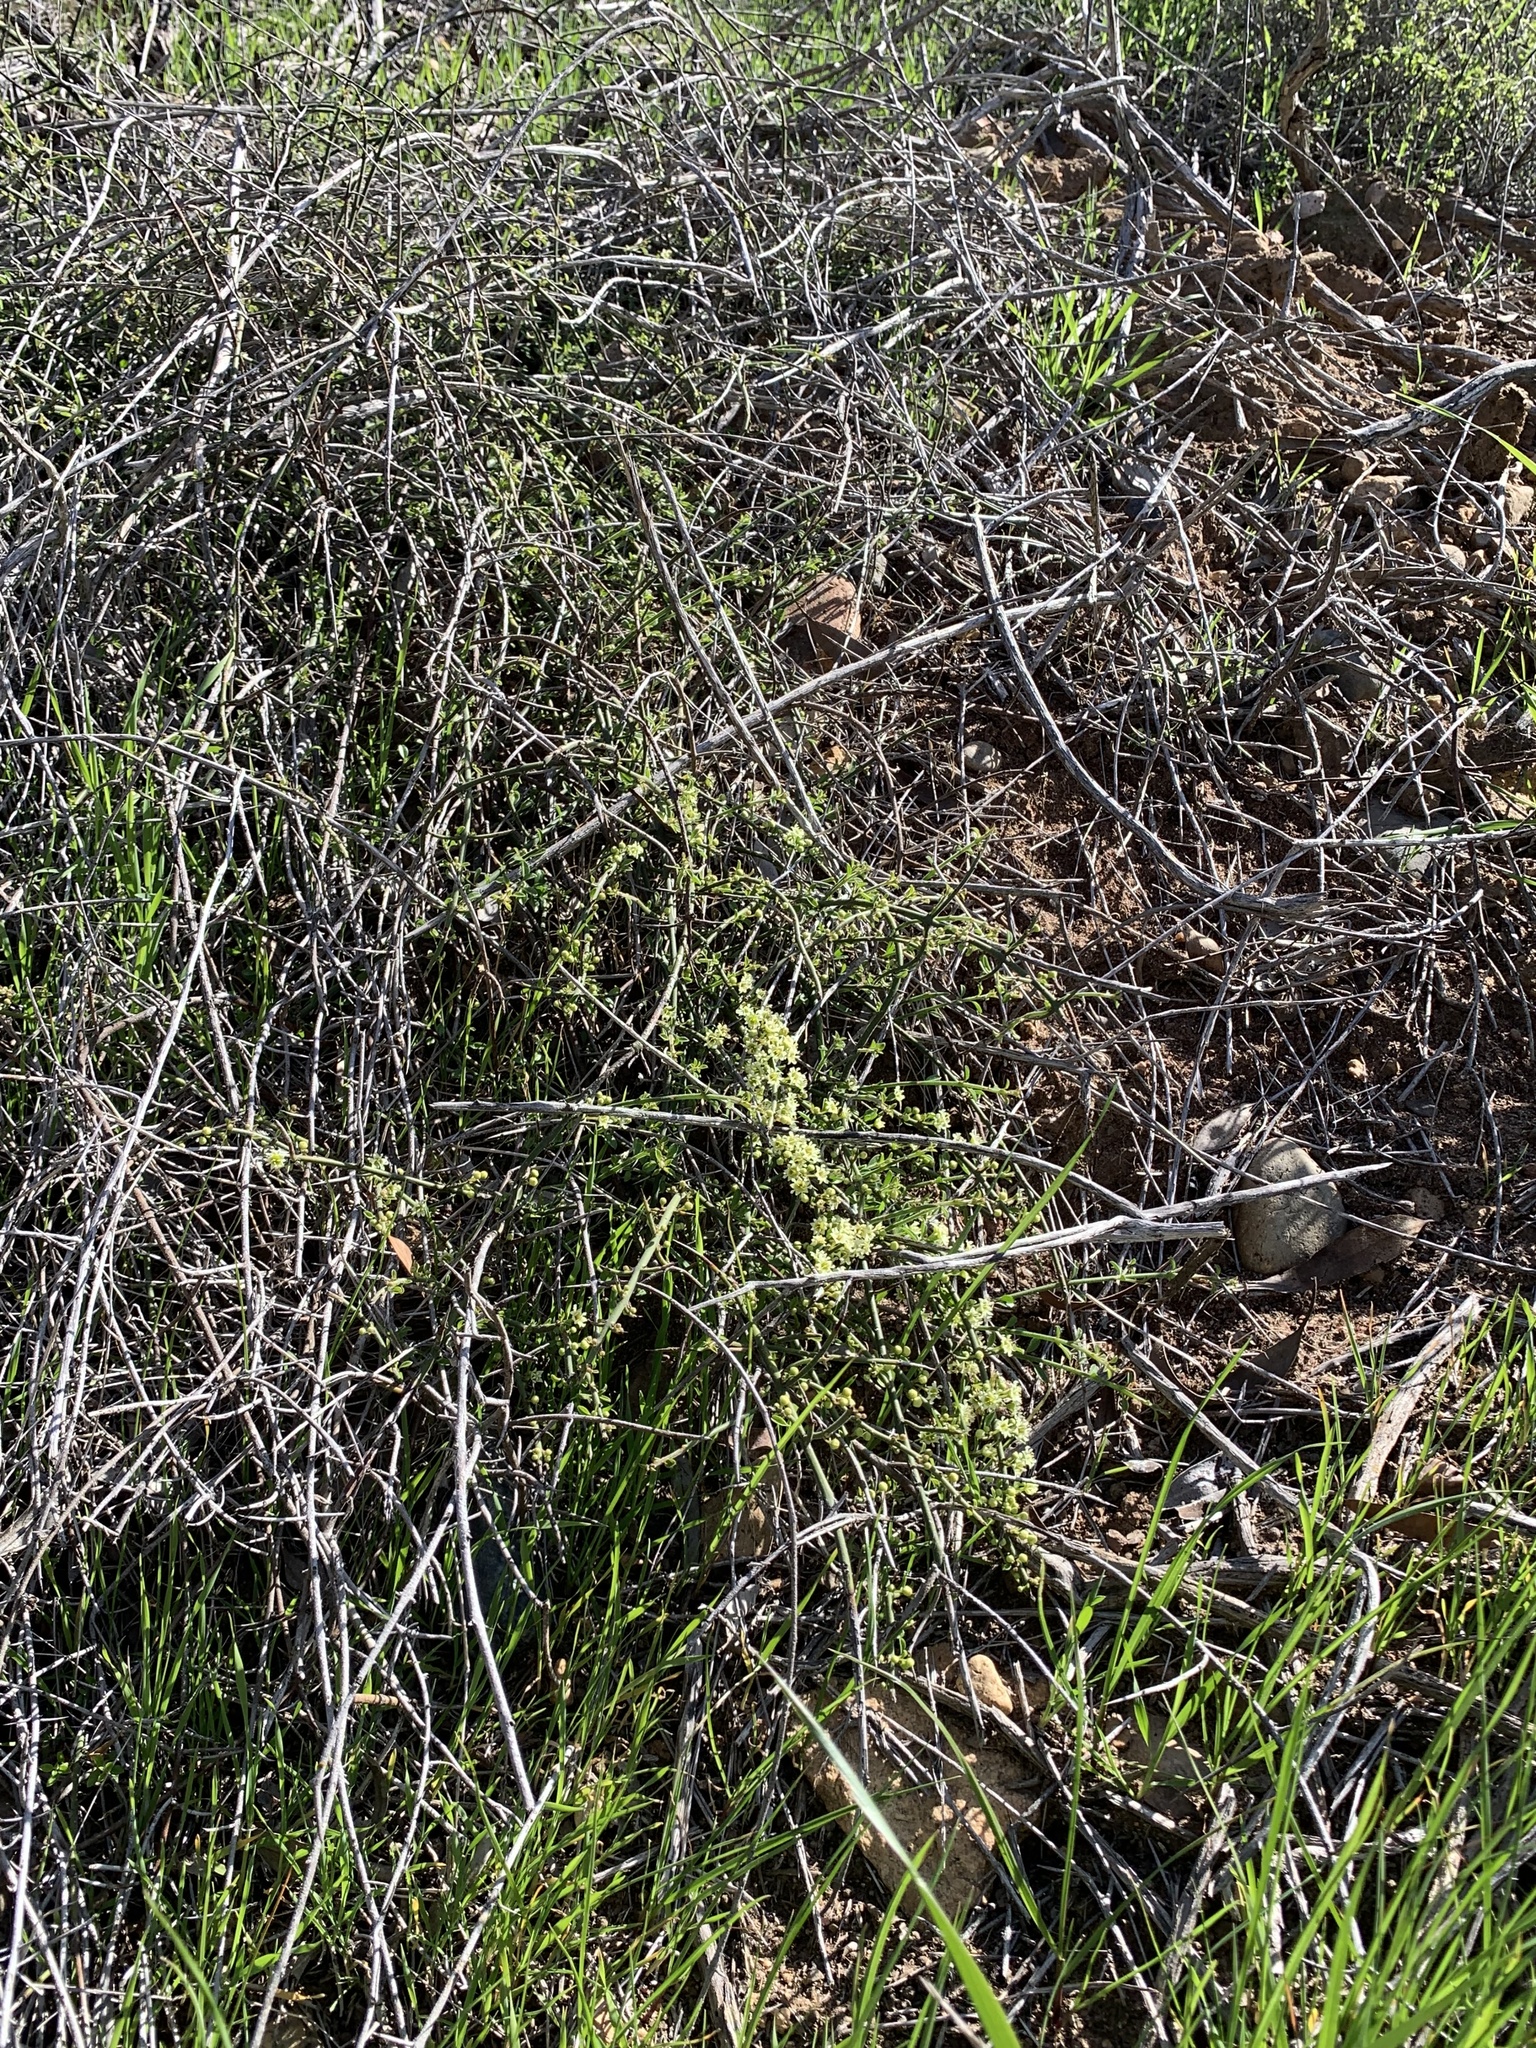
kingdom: Plantae
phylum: Tracheophyta
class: Magnoliopsida
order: Rosales
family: Rhamnaceae
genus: Adolphia
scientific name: Adolphia californica
